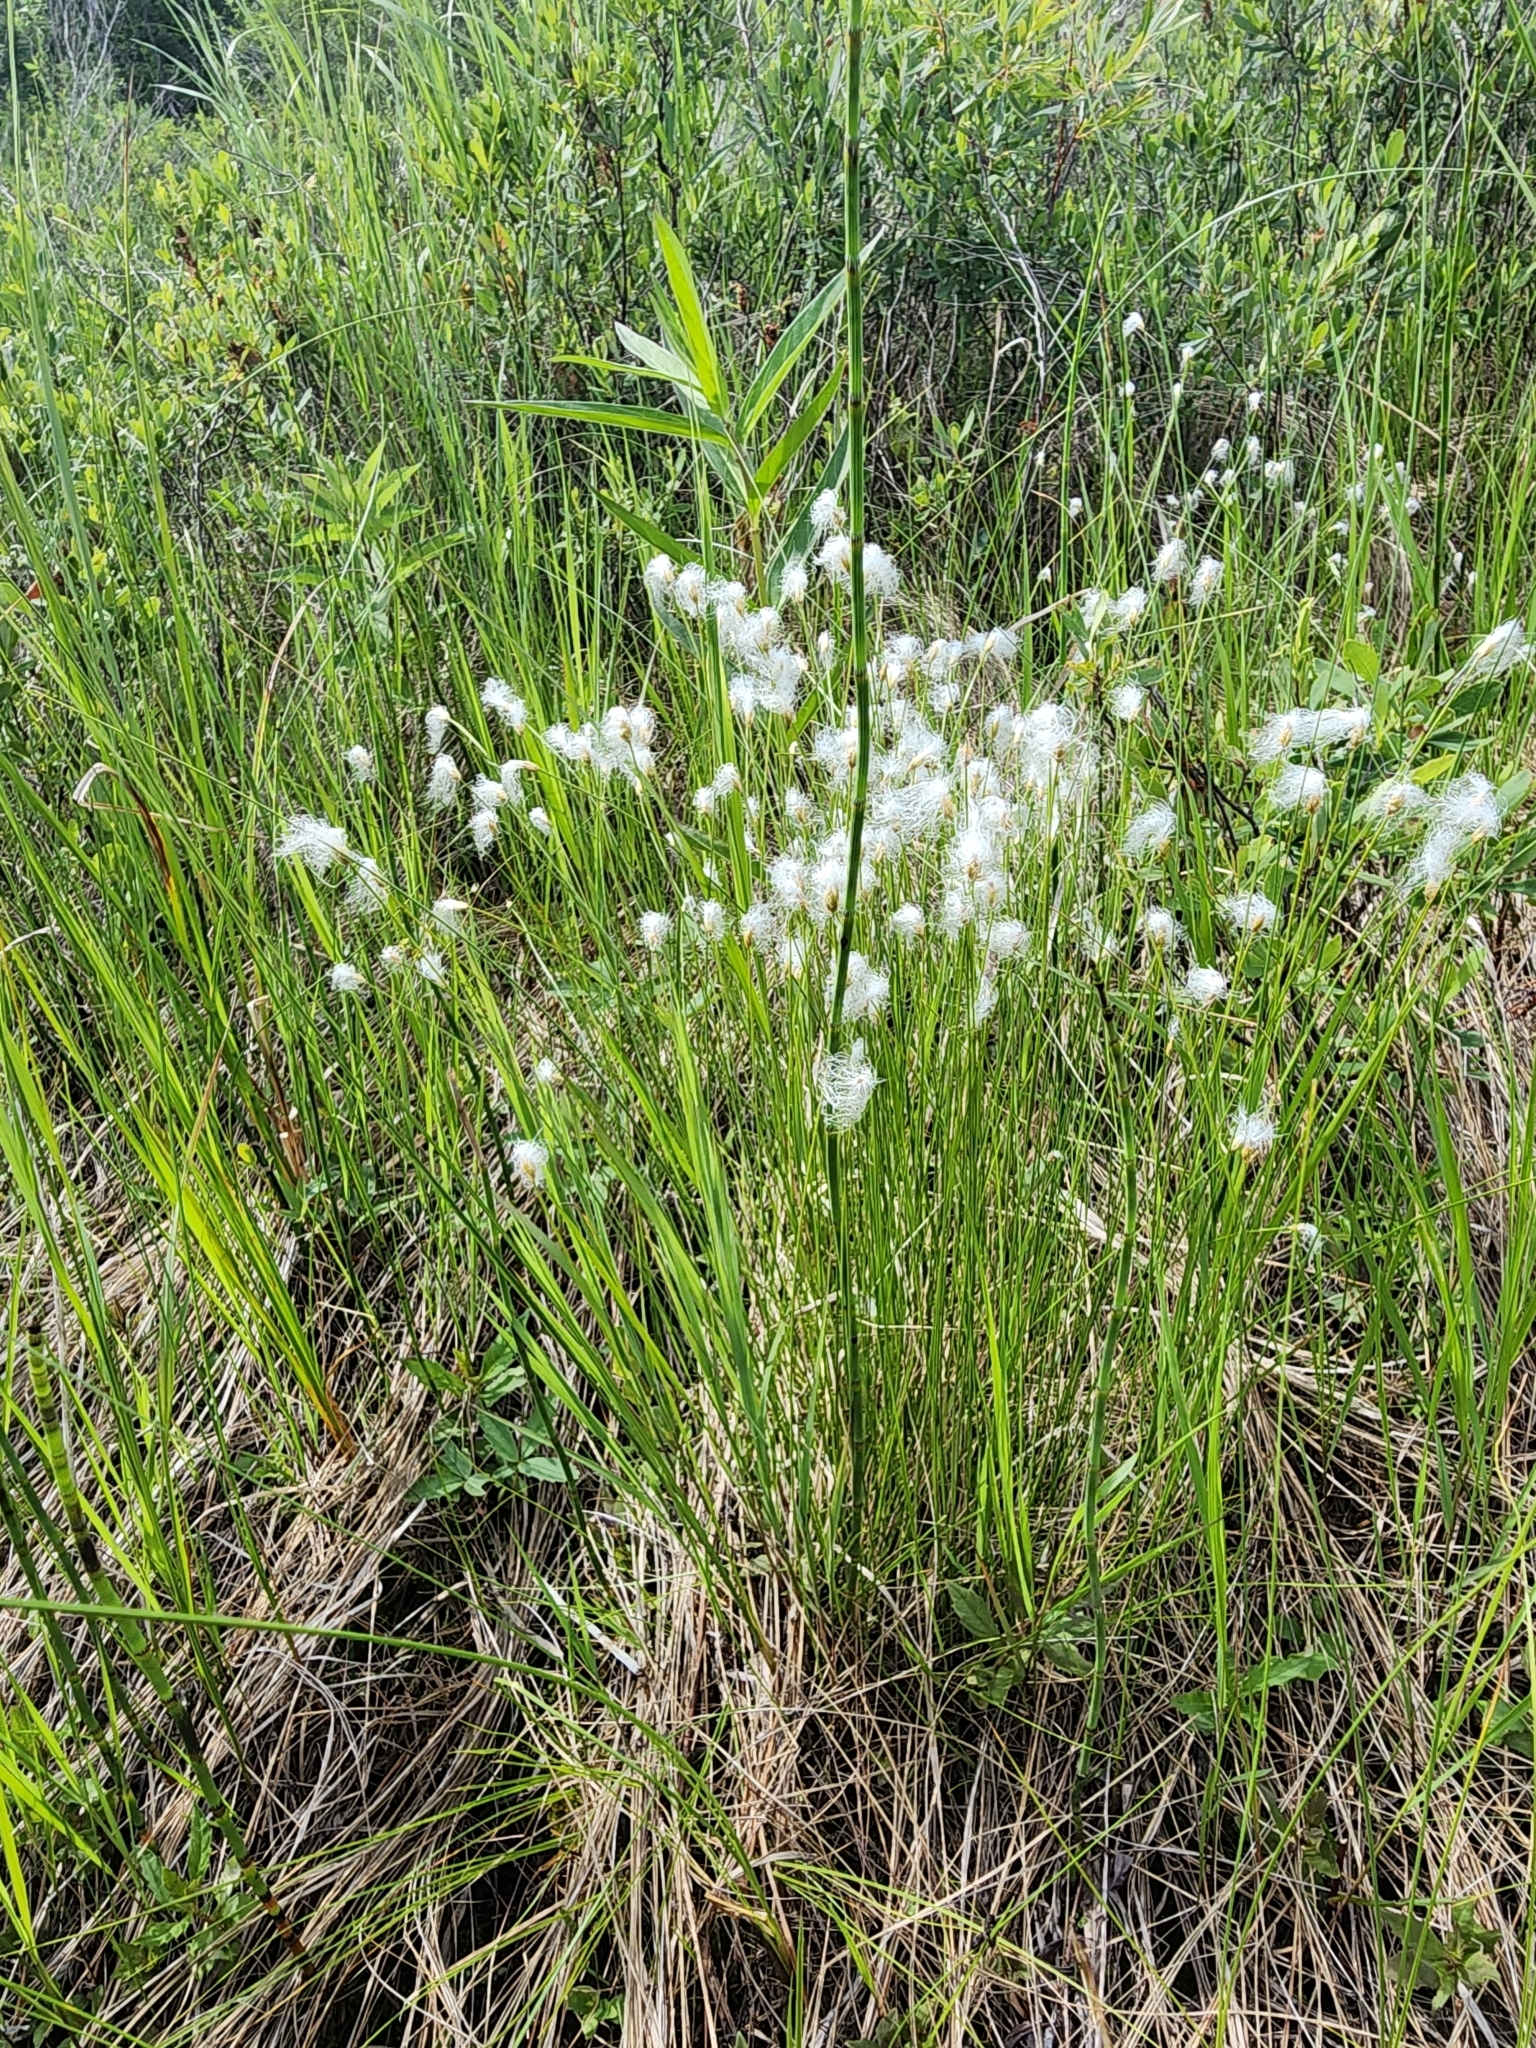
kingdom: Plantae
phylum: Tracheophyta
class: Liliopsida
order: Poales
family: Cyperaceae
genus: Trichophorum
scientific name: Trichophorum alpinum
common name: Alpine bulrush
